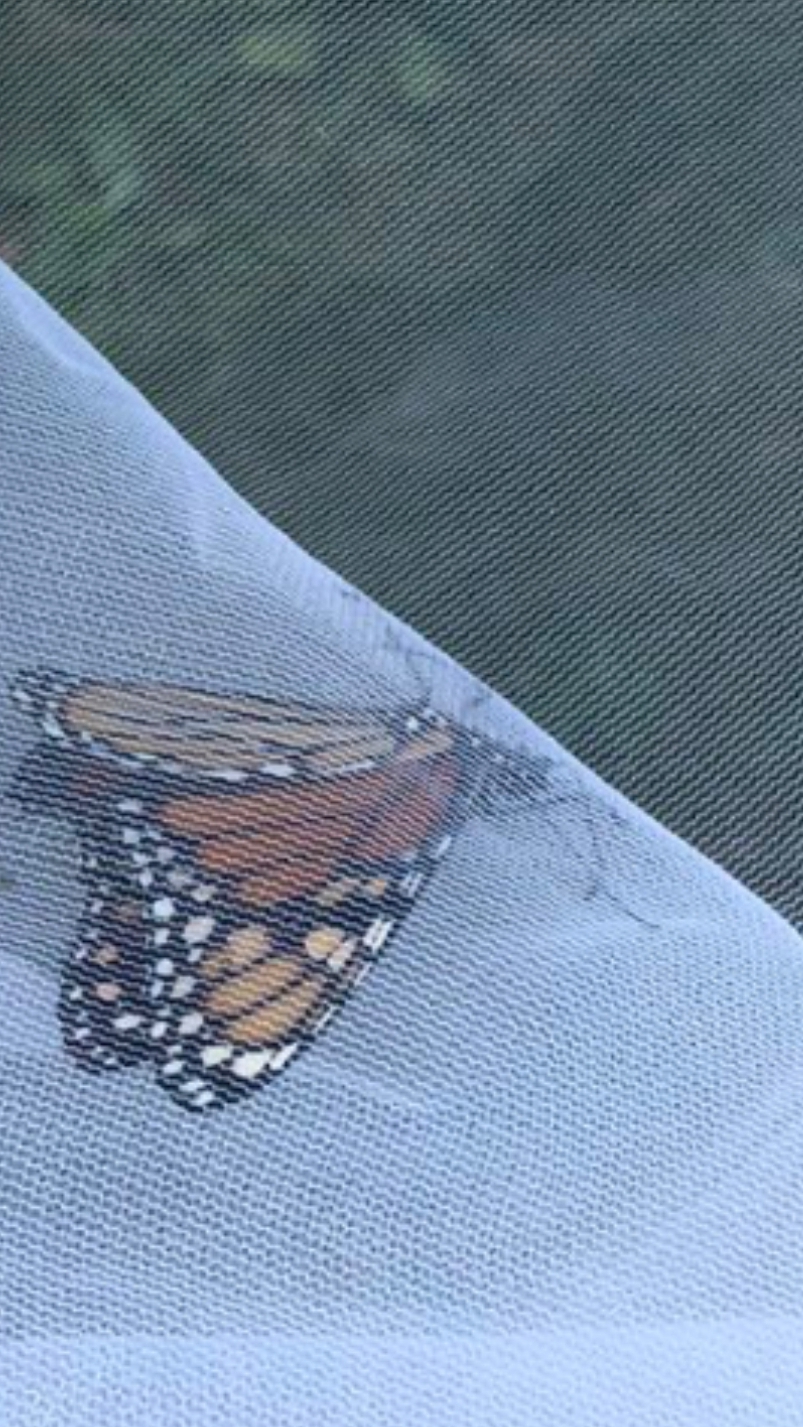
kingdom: Animalia
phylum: Arthropoda
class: Insecta
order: Lepidoptera
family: Nymphalidae
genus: Danaus
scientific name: Danaus plexippus
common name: Monarch
